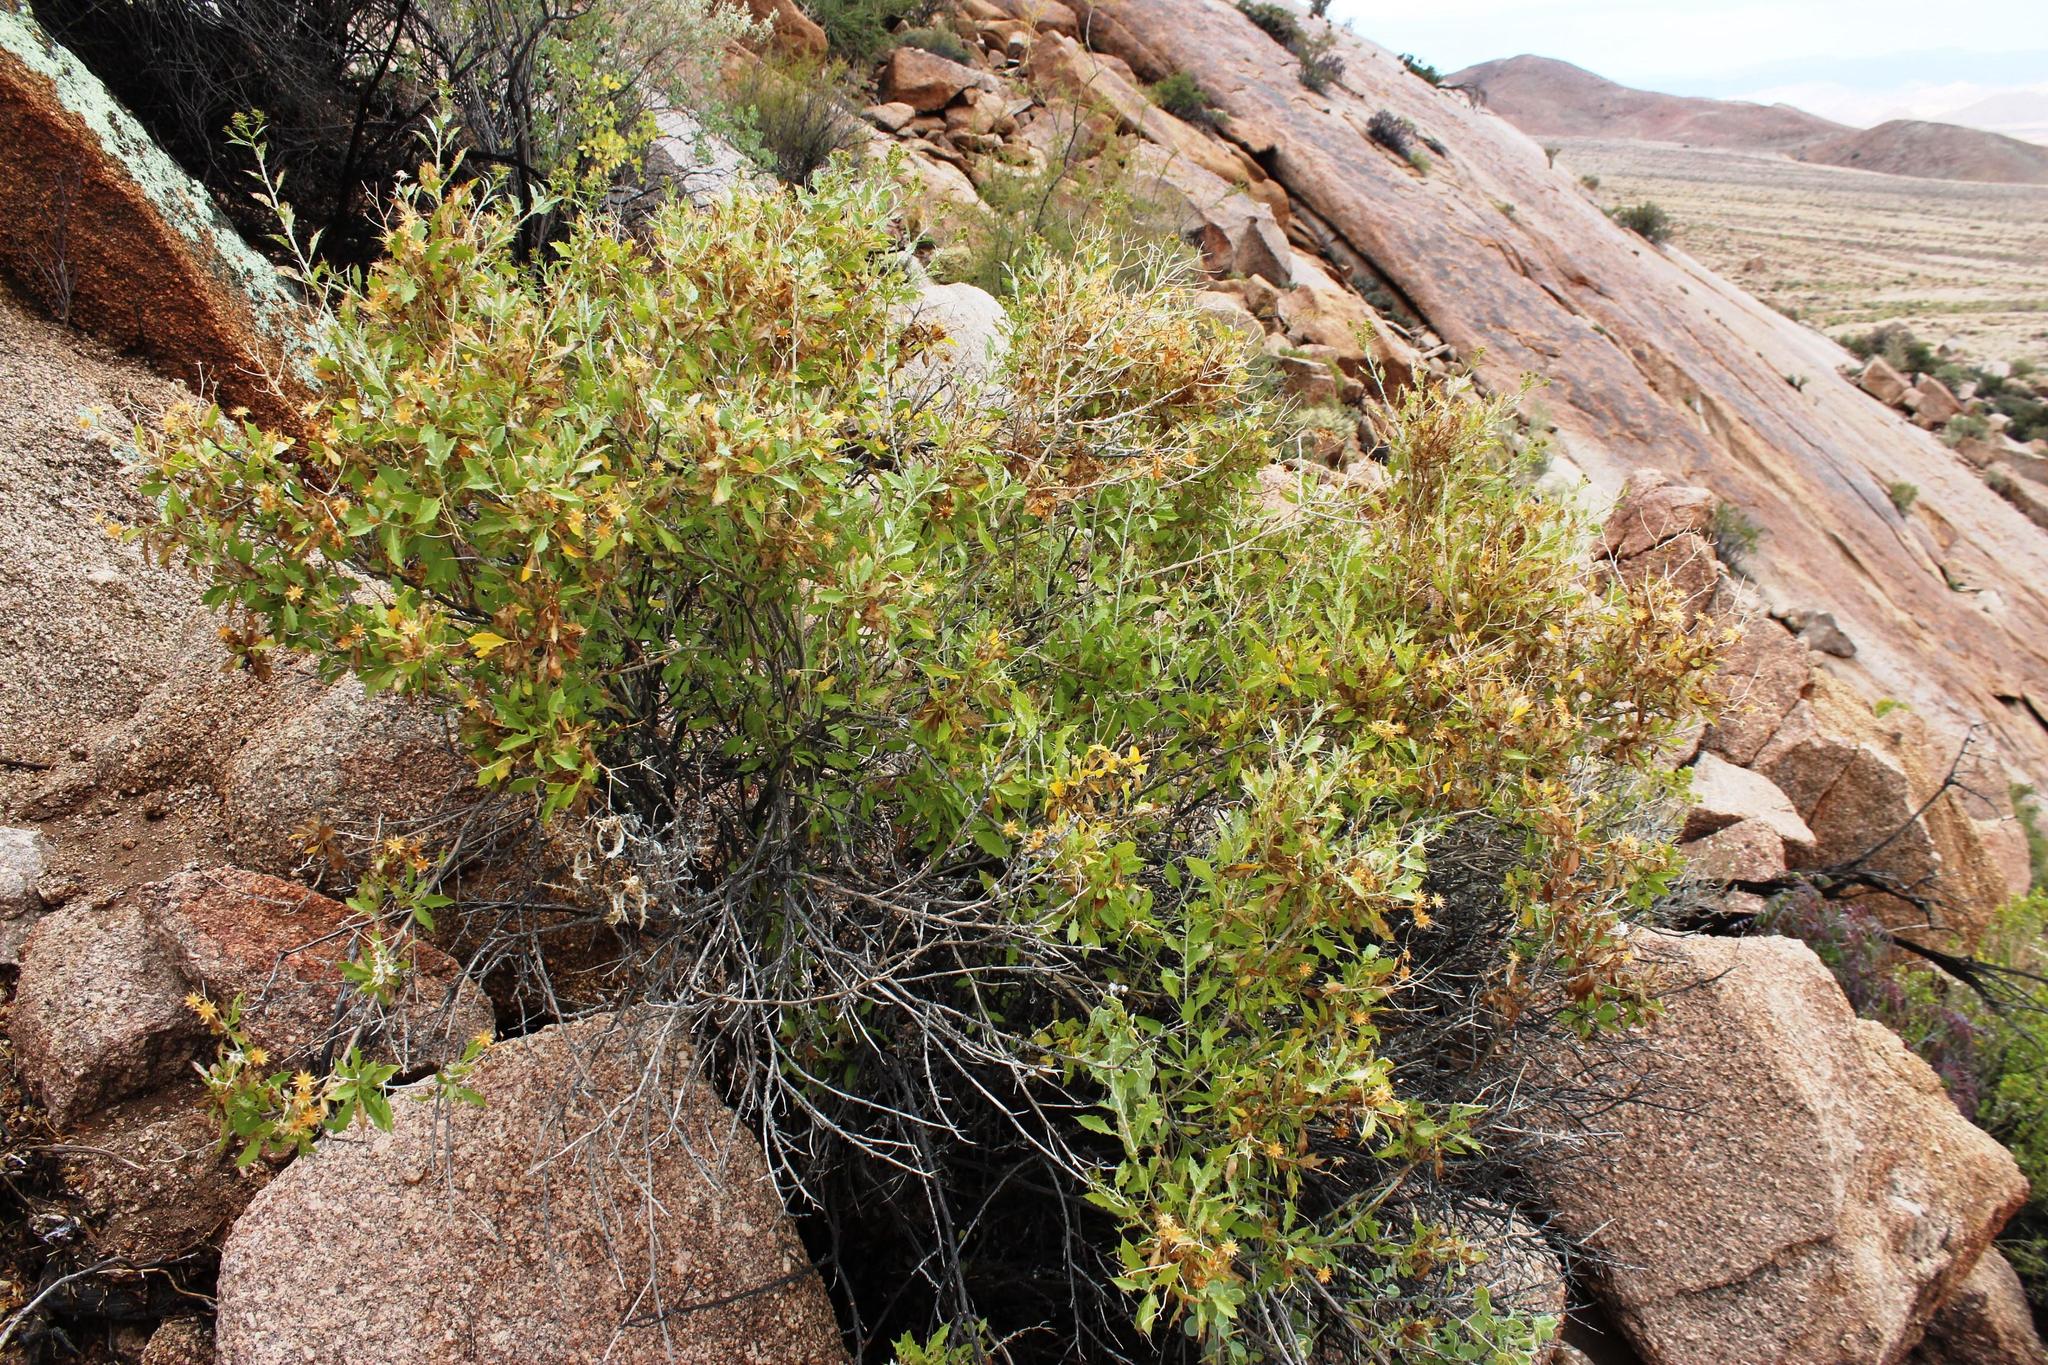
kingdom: Plantae
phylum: Tracheophyta
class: Magnoliopsida
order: Asterales
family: Asteraceae
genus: Berkheya
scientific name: Berkheya canescens
